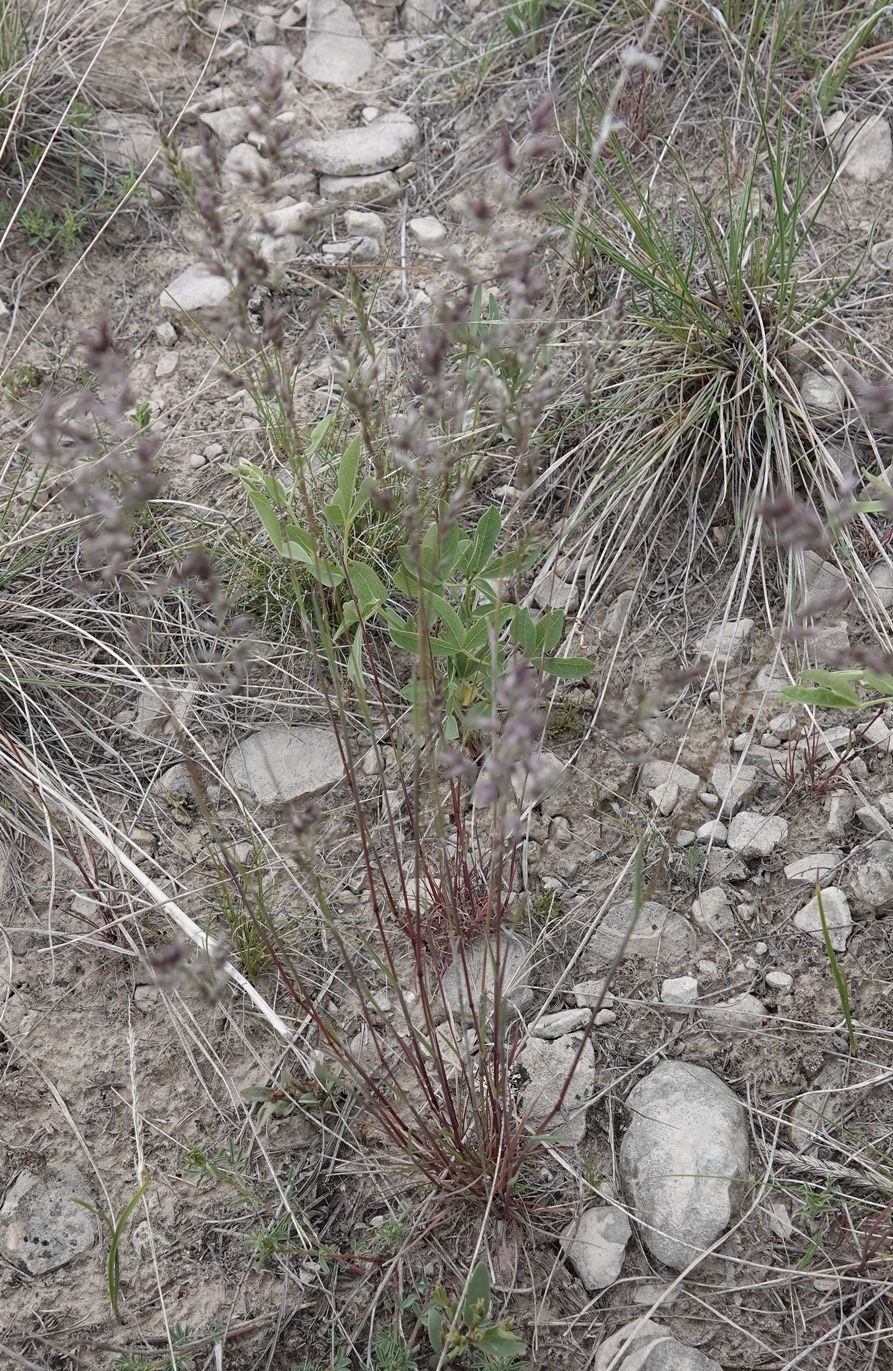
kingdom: Plantae
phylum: Tracheophyta
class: Liliopsida
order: Poales
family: Poaceae
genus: Poa
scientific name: Poa bulbosa
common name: Bulbous bluegrass
